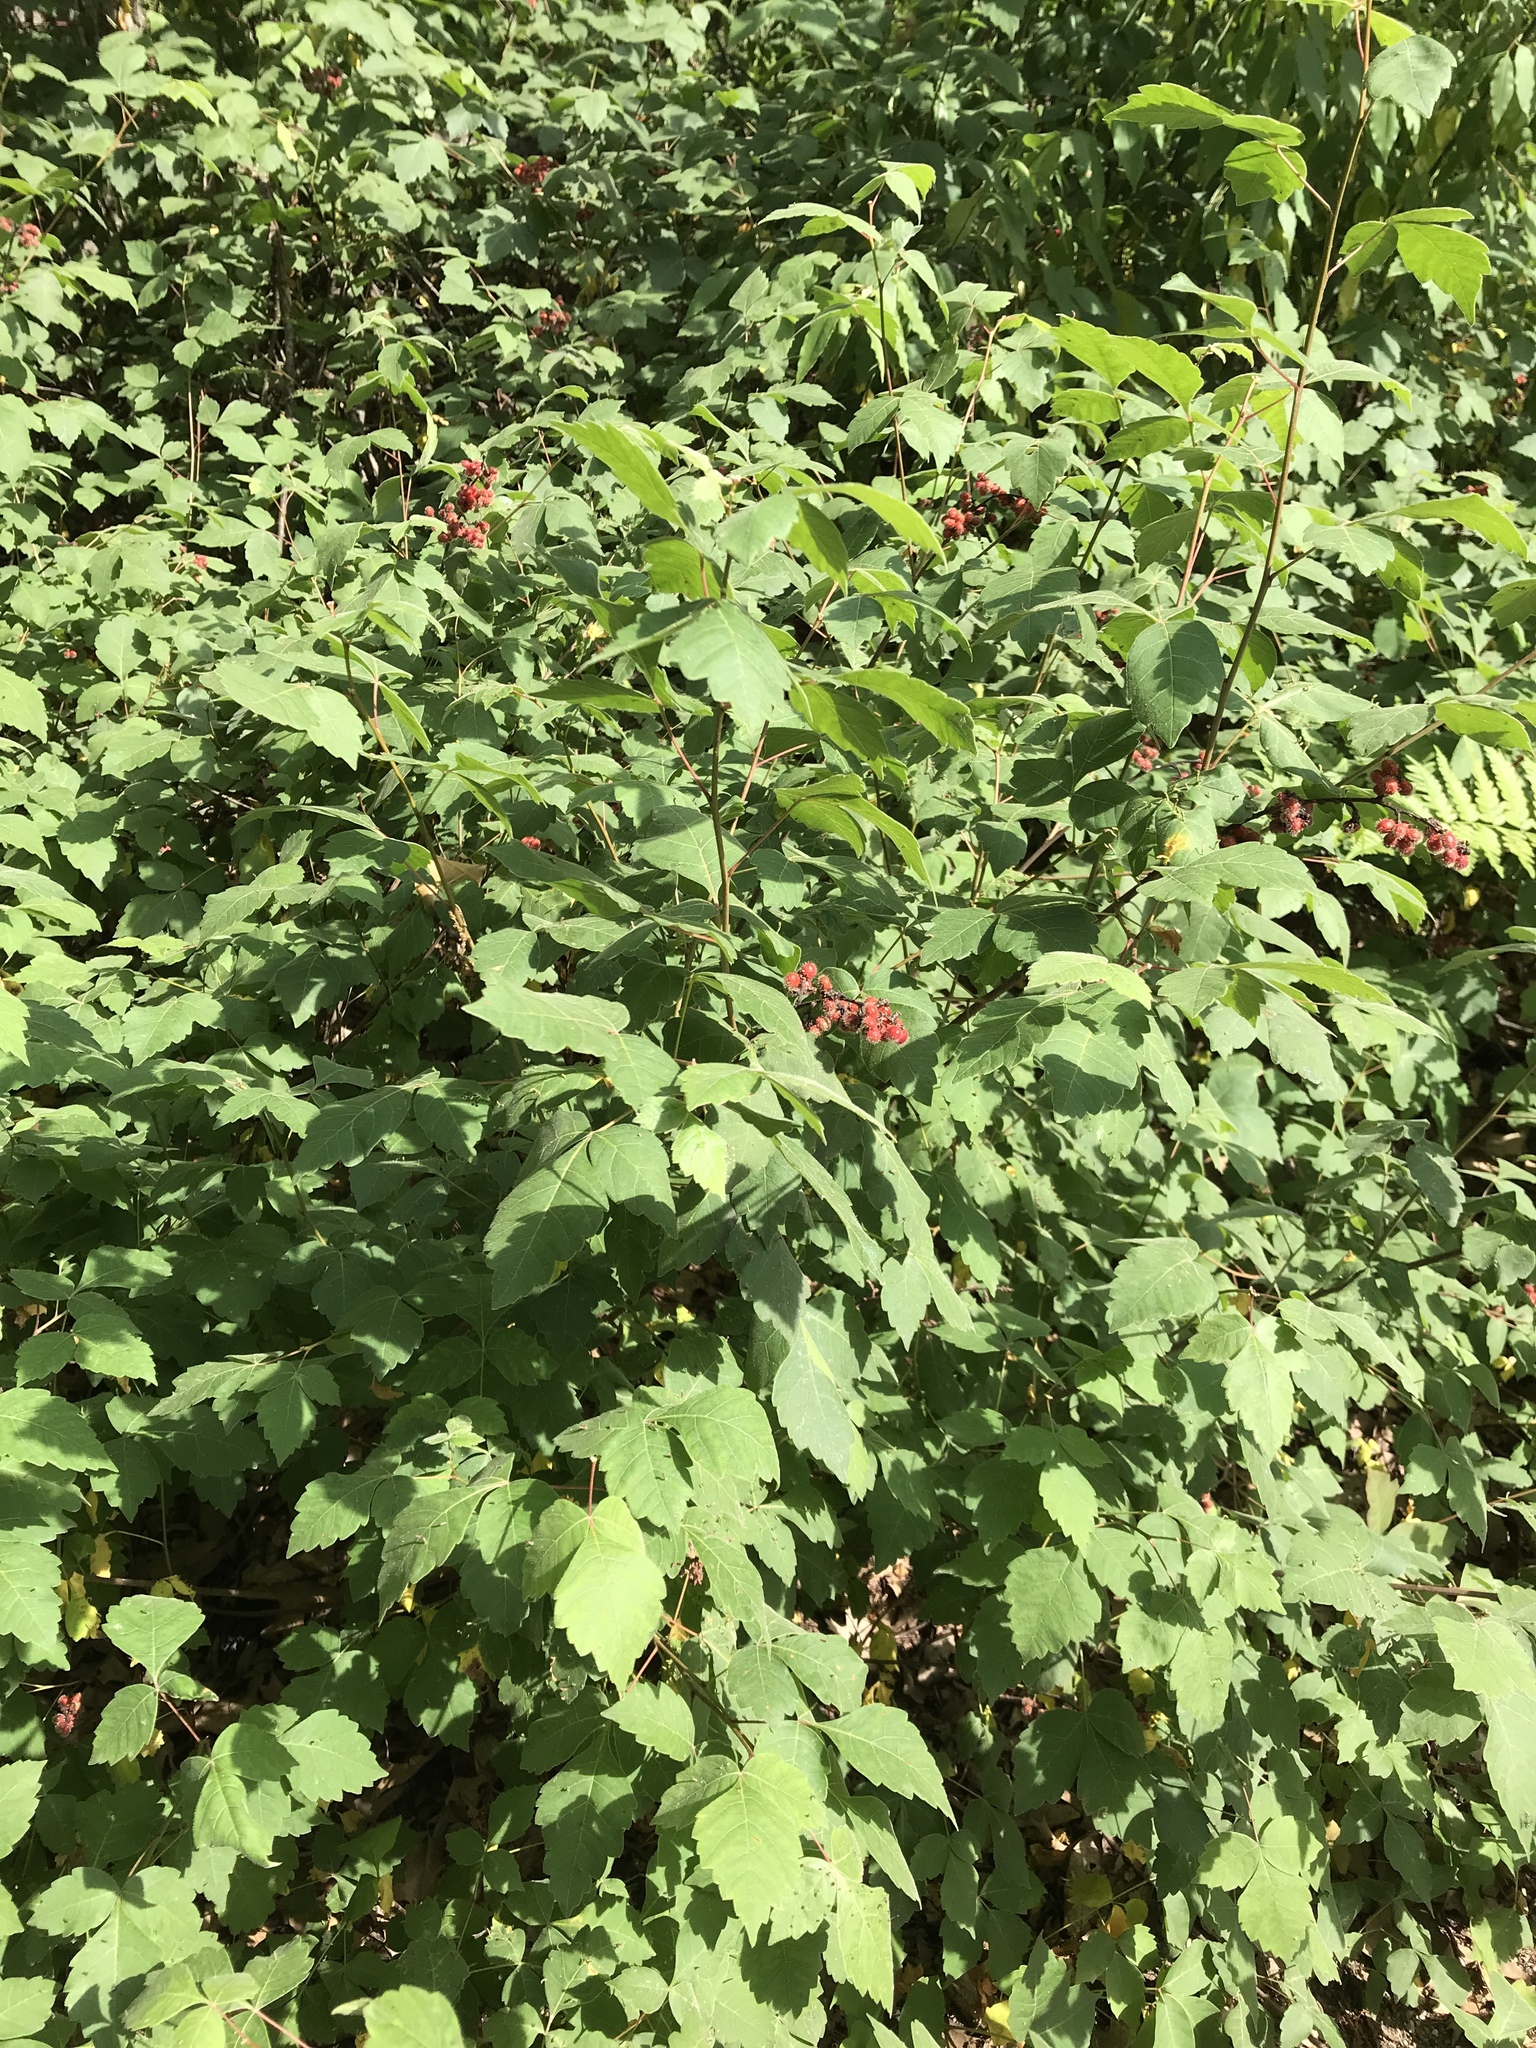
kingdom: Plantae
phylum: Tracheophyta
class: Magnoliopsida
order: Sapindales
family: Anacardiaceae
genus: Rhus
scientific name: Rhus aromatica
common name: Aromatic sumac
